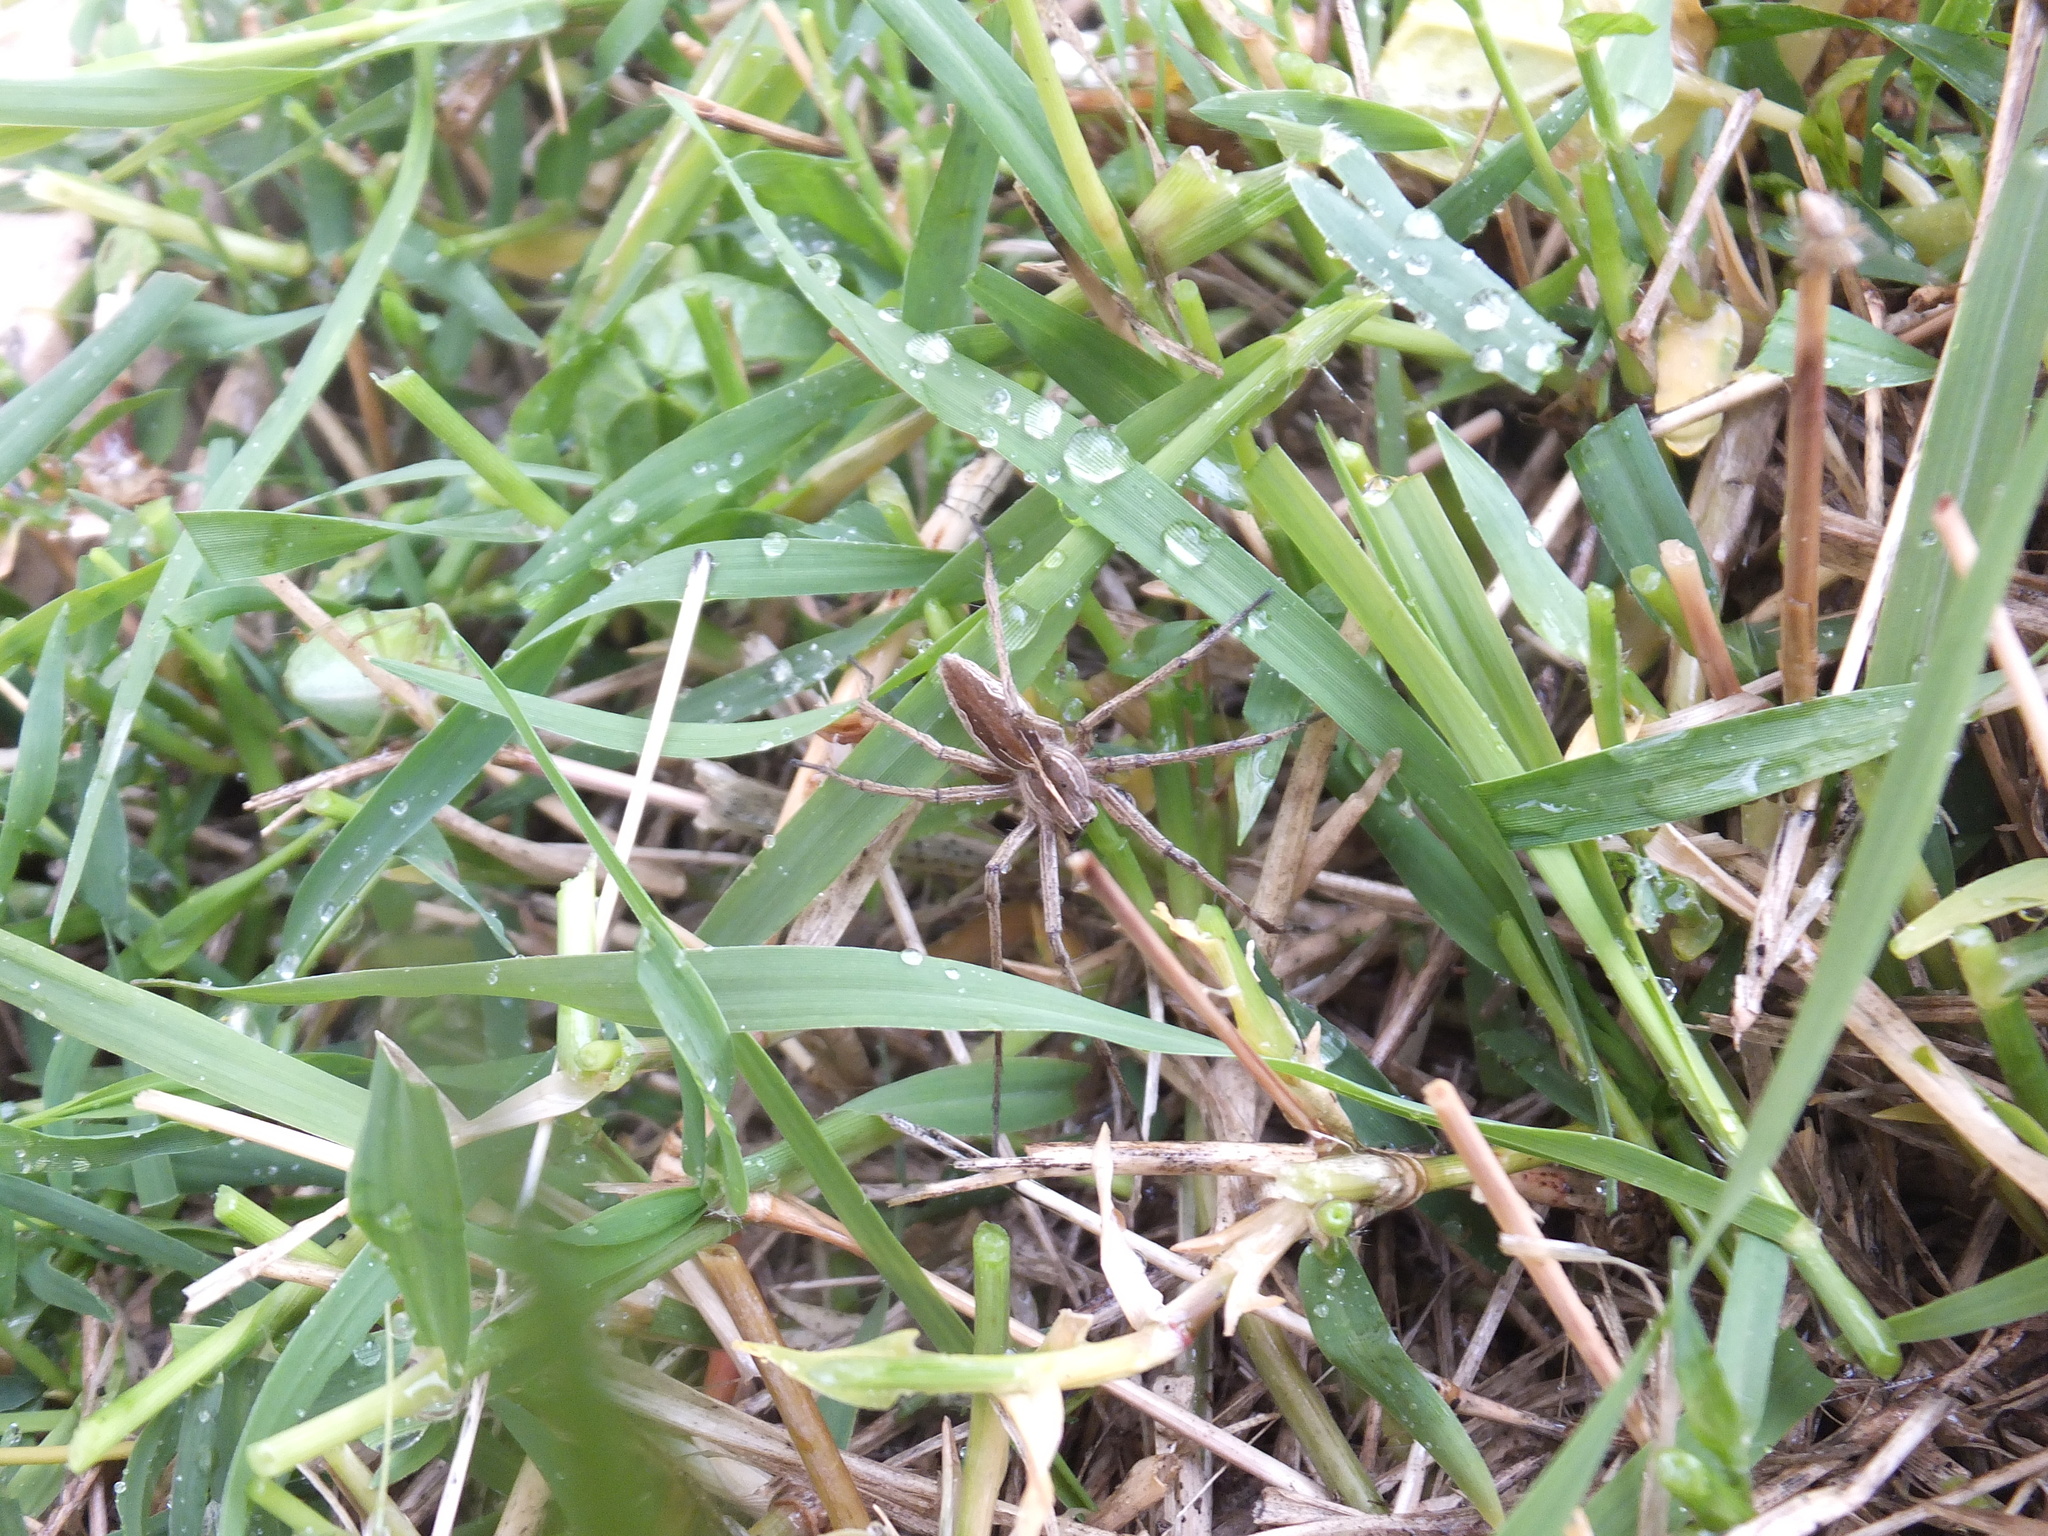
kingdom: Animalia
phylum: Arthropoda
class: Arachnida
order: Araneae
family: Pisauridae
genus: Pisaura
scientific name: Pisaura mirabilis
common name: Tent spider
